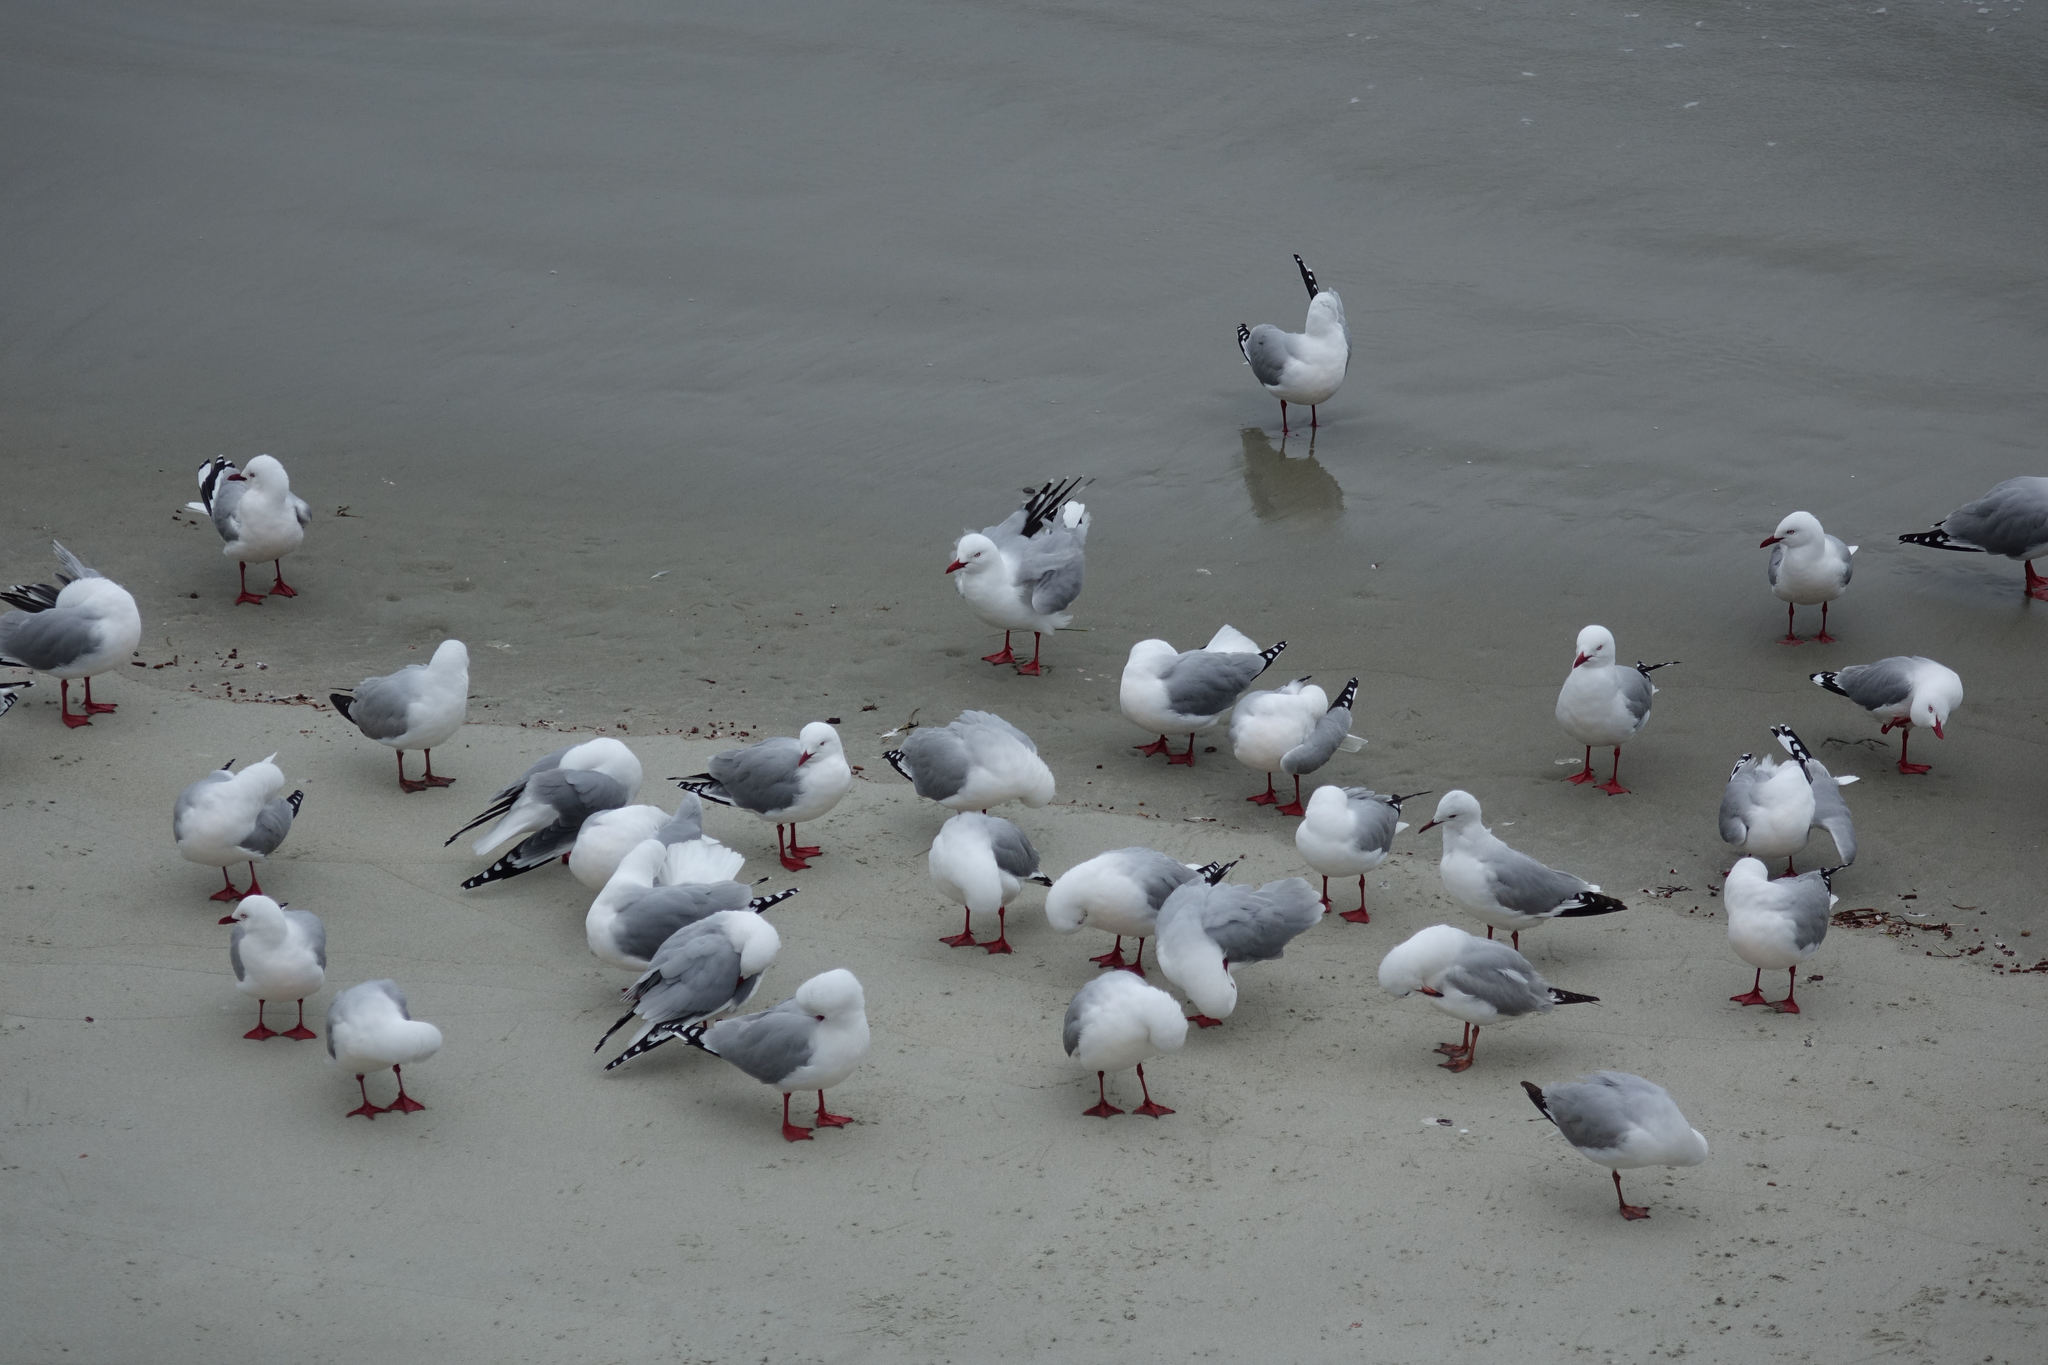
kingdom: Animalia
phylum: Chordata
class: Aves
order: Charadriiformes
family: Laridae
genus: Chroicocephalus
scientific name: Chroicocephalus novaehollandiae
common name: Silver gull
